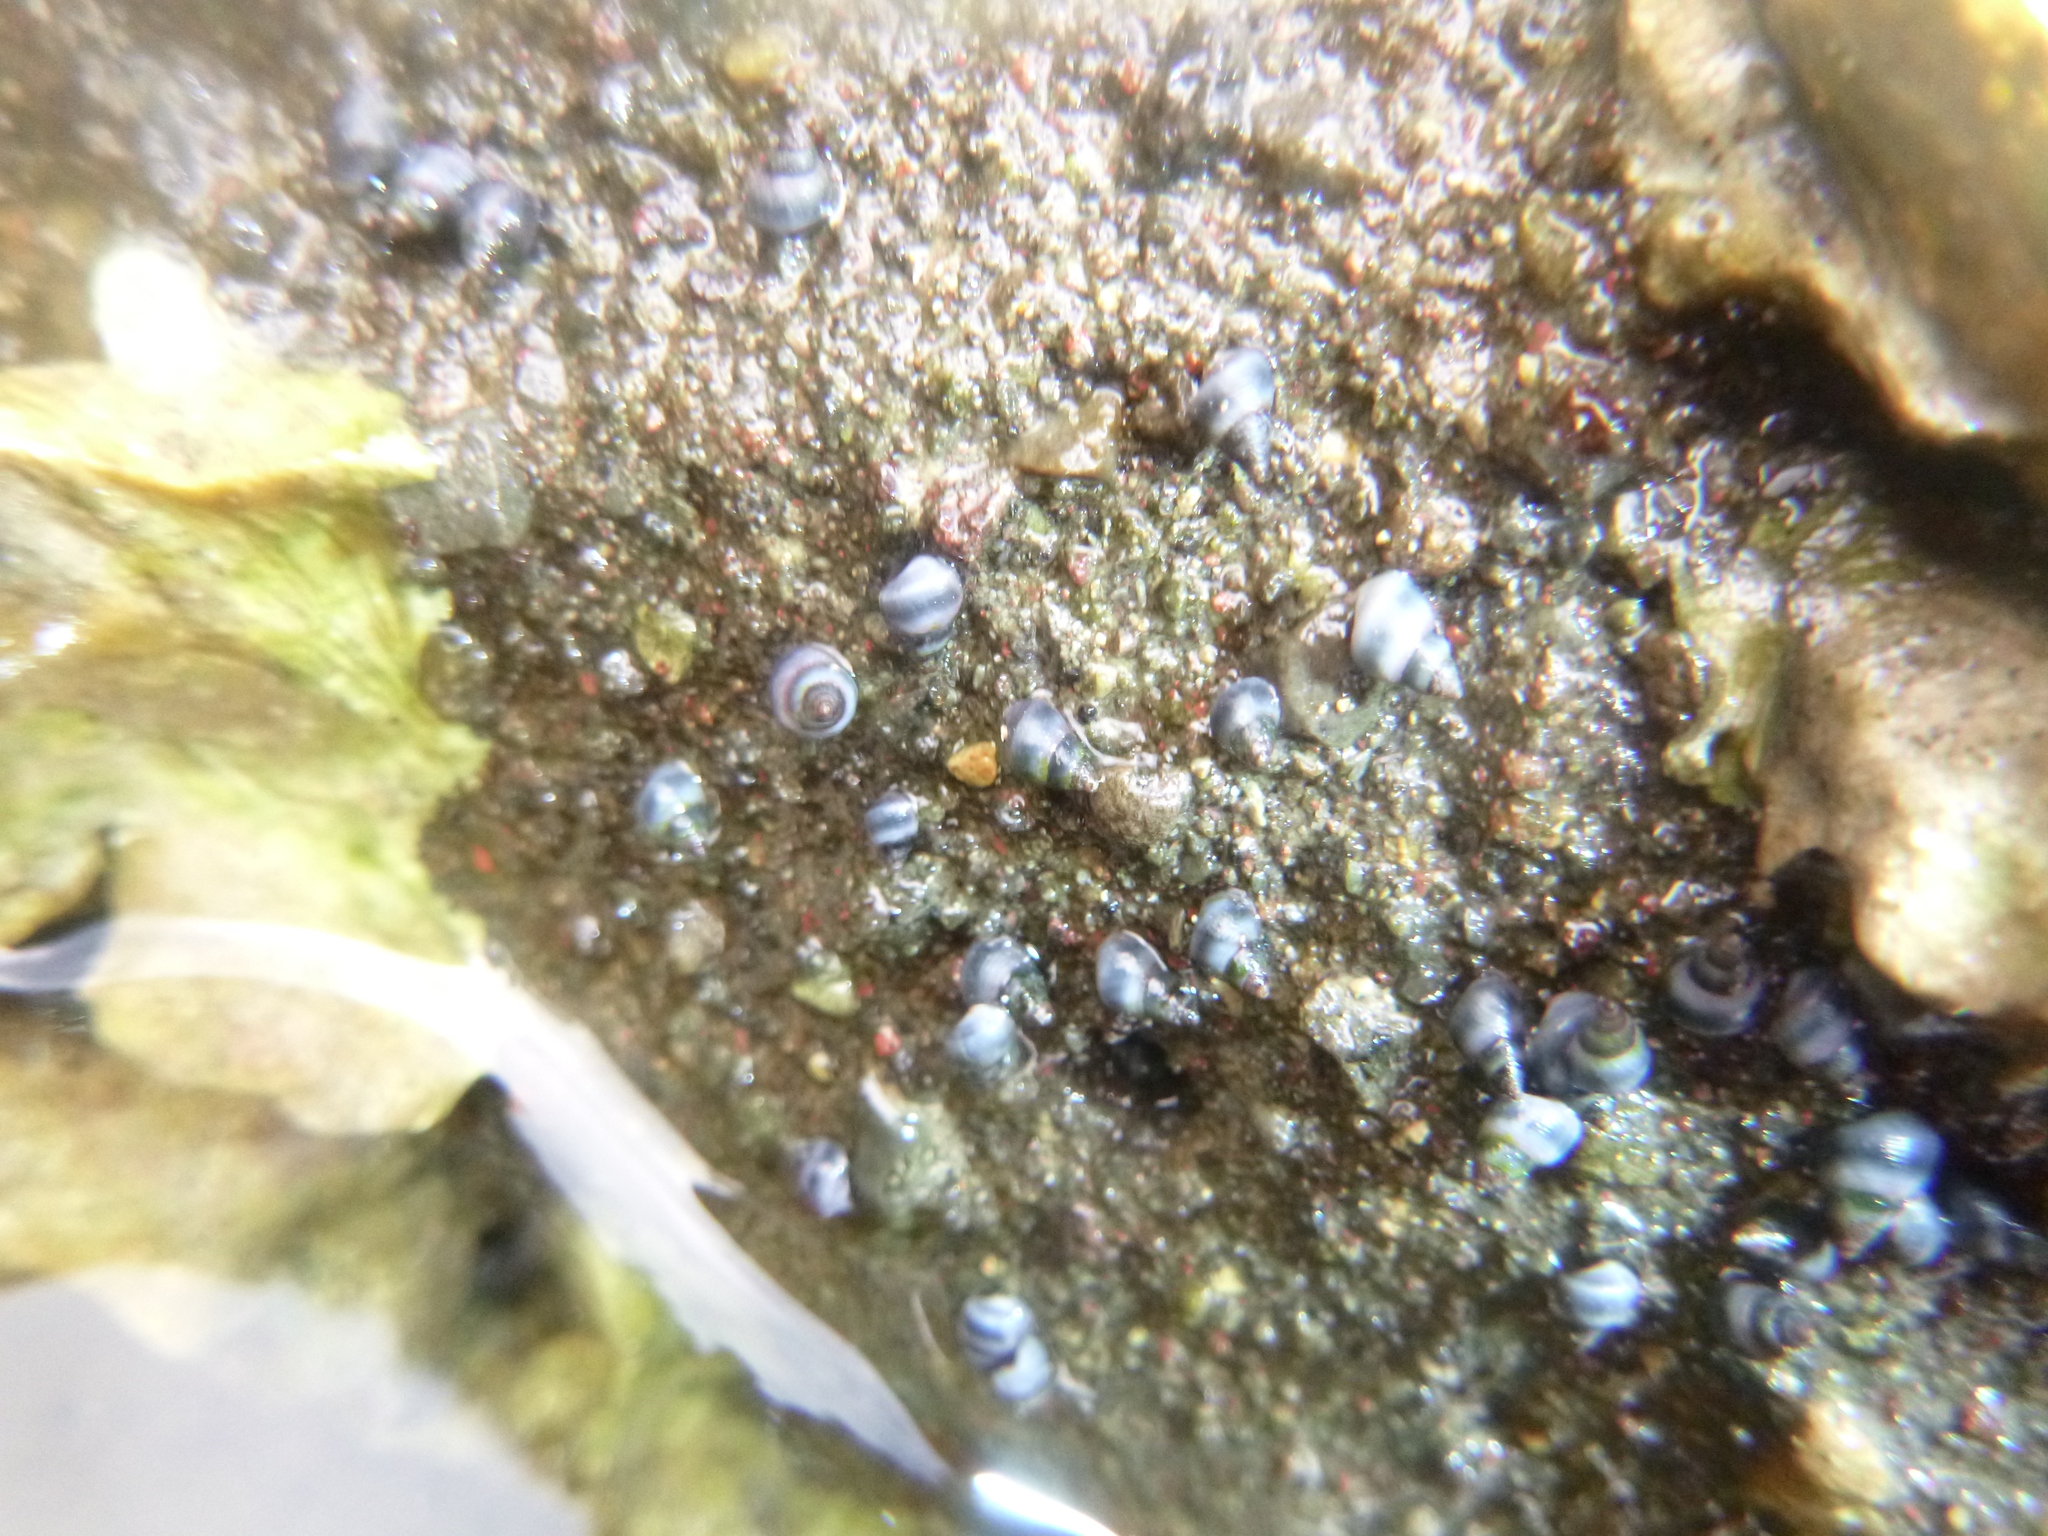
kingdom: Animalia
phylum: Mollusca
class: Gastropoda
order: Littorinimorpha
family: Littorinidae
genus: Austrolittorina
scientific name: Austrolittorina antipodum
